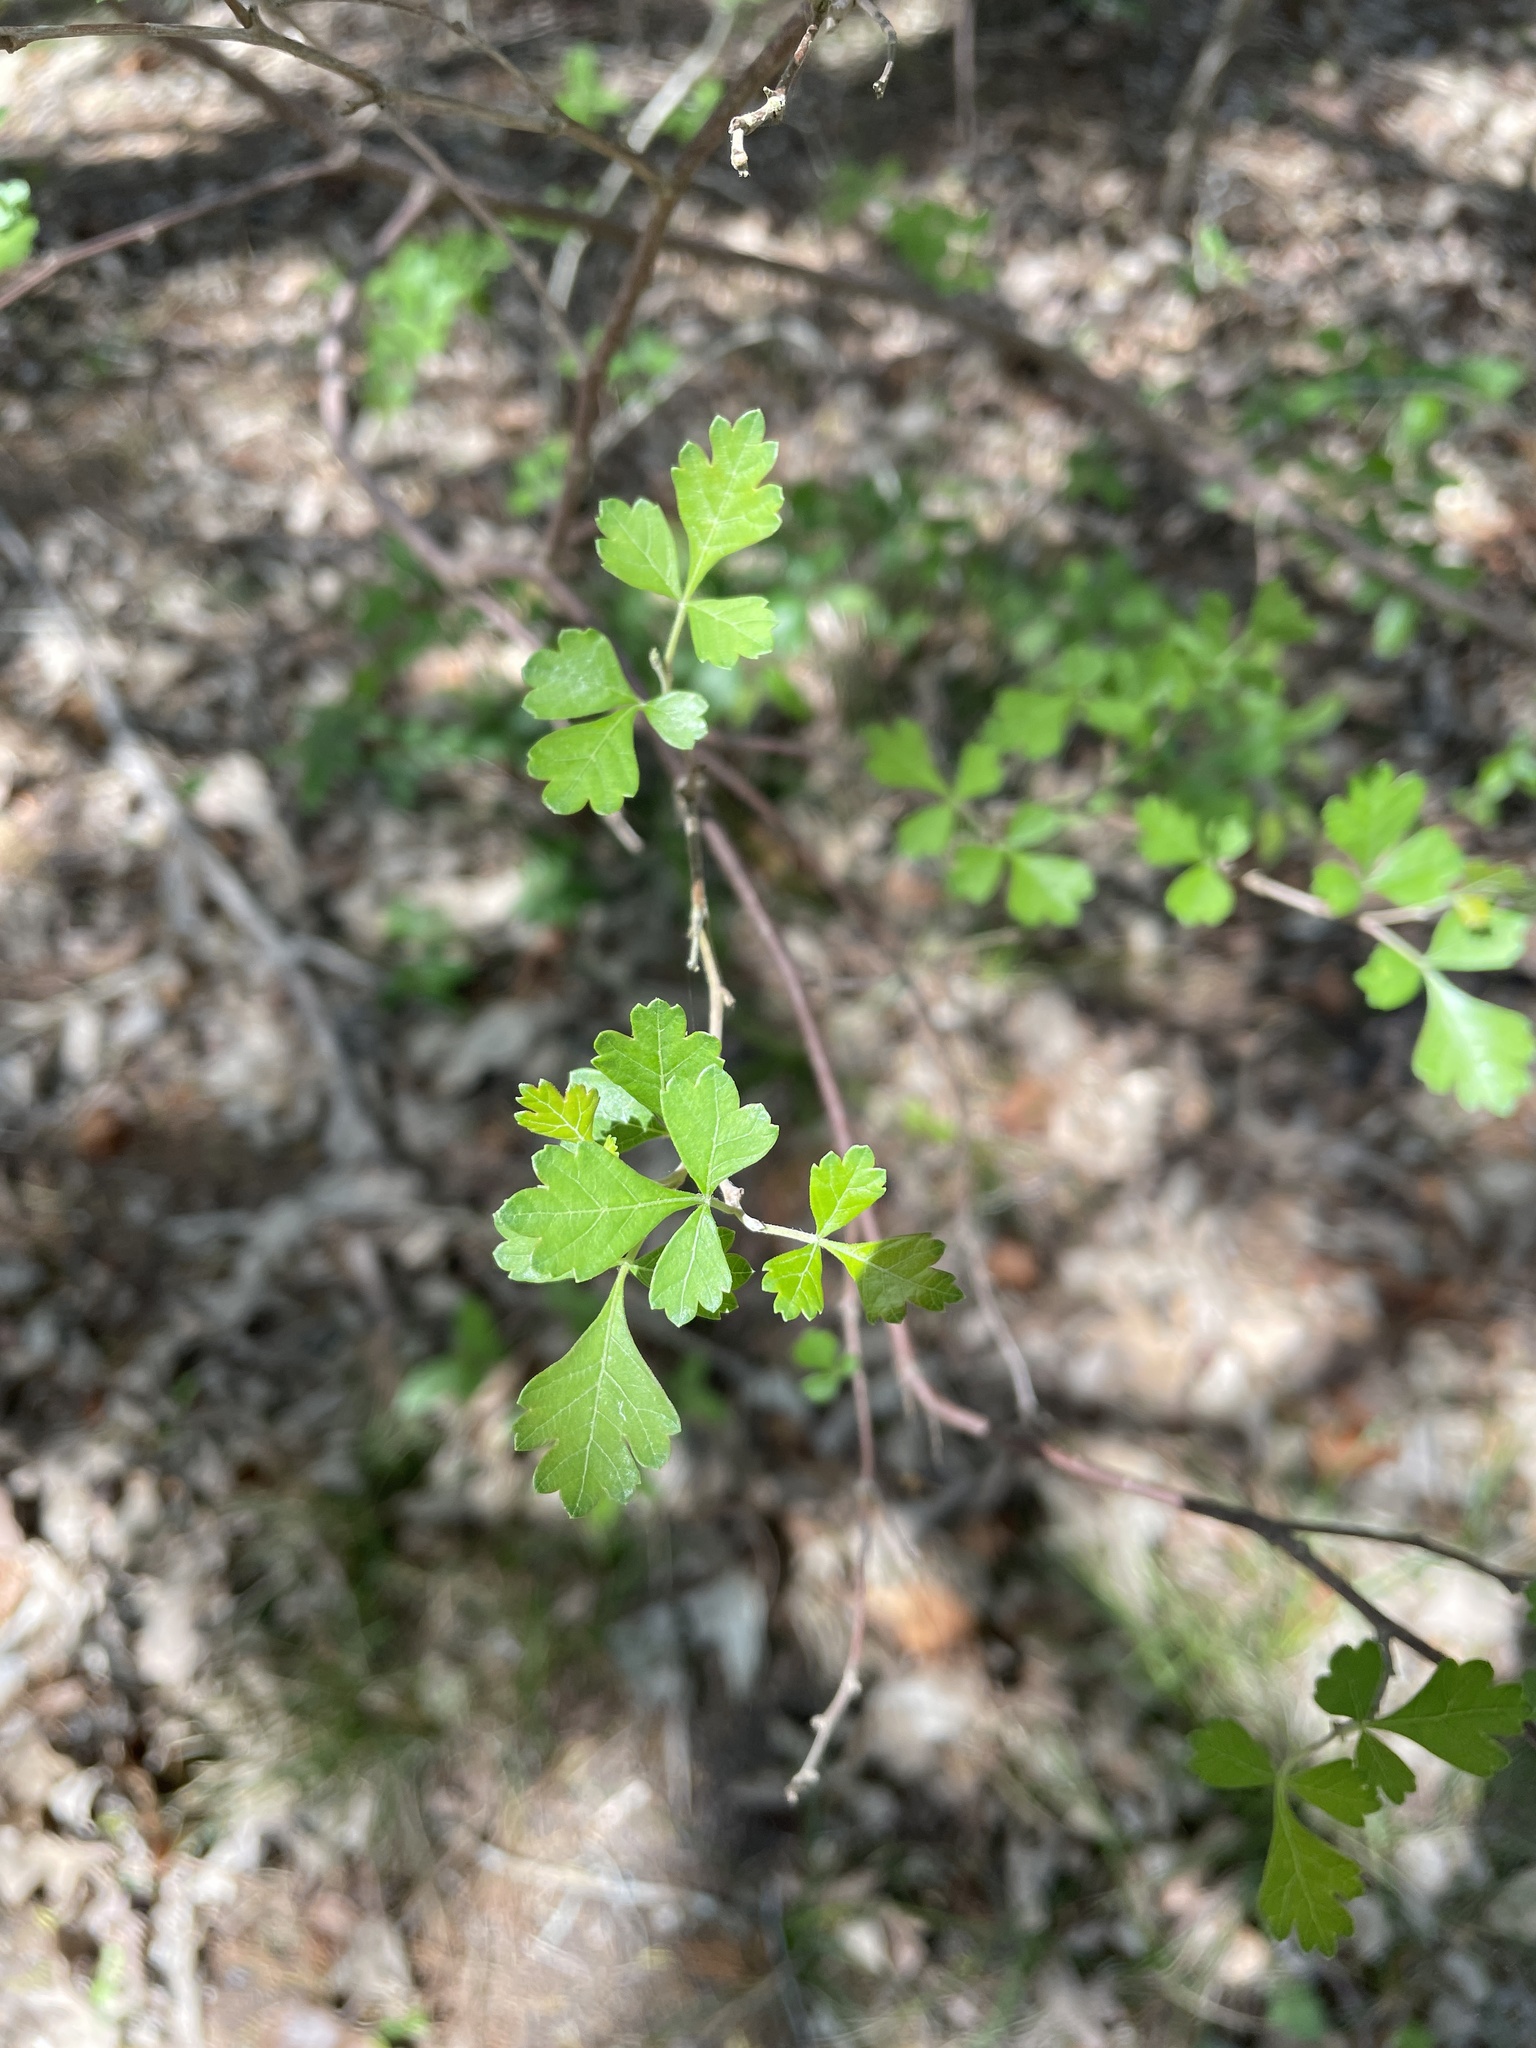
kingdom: Plantae
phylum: Tracheophyta
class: Magnoliopsida
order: Sapindales
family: Anacardiaceae
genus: Rhus
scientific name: Rhus aromatica
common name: Aromatic sumac
